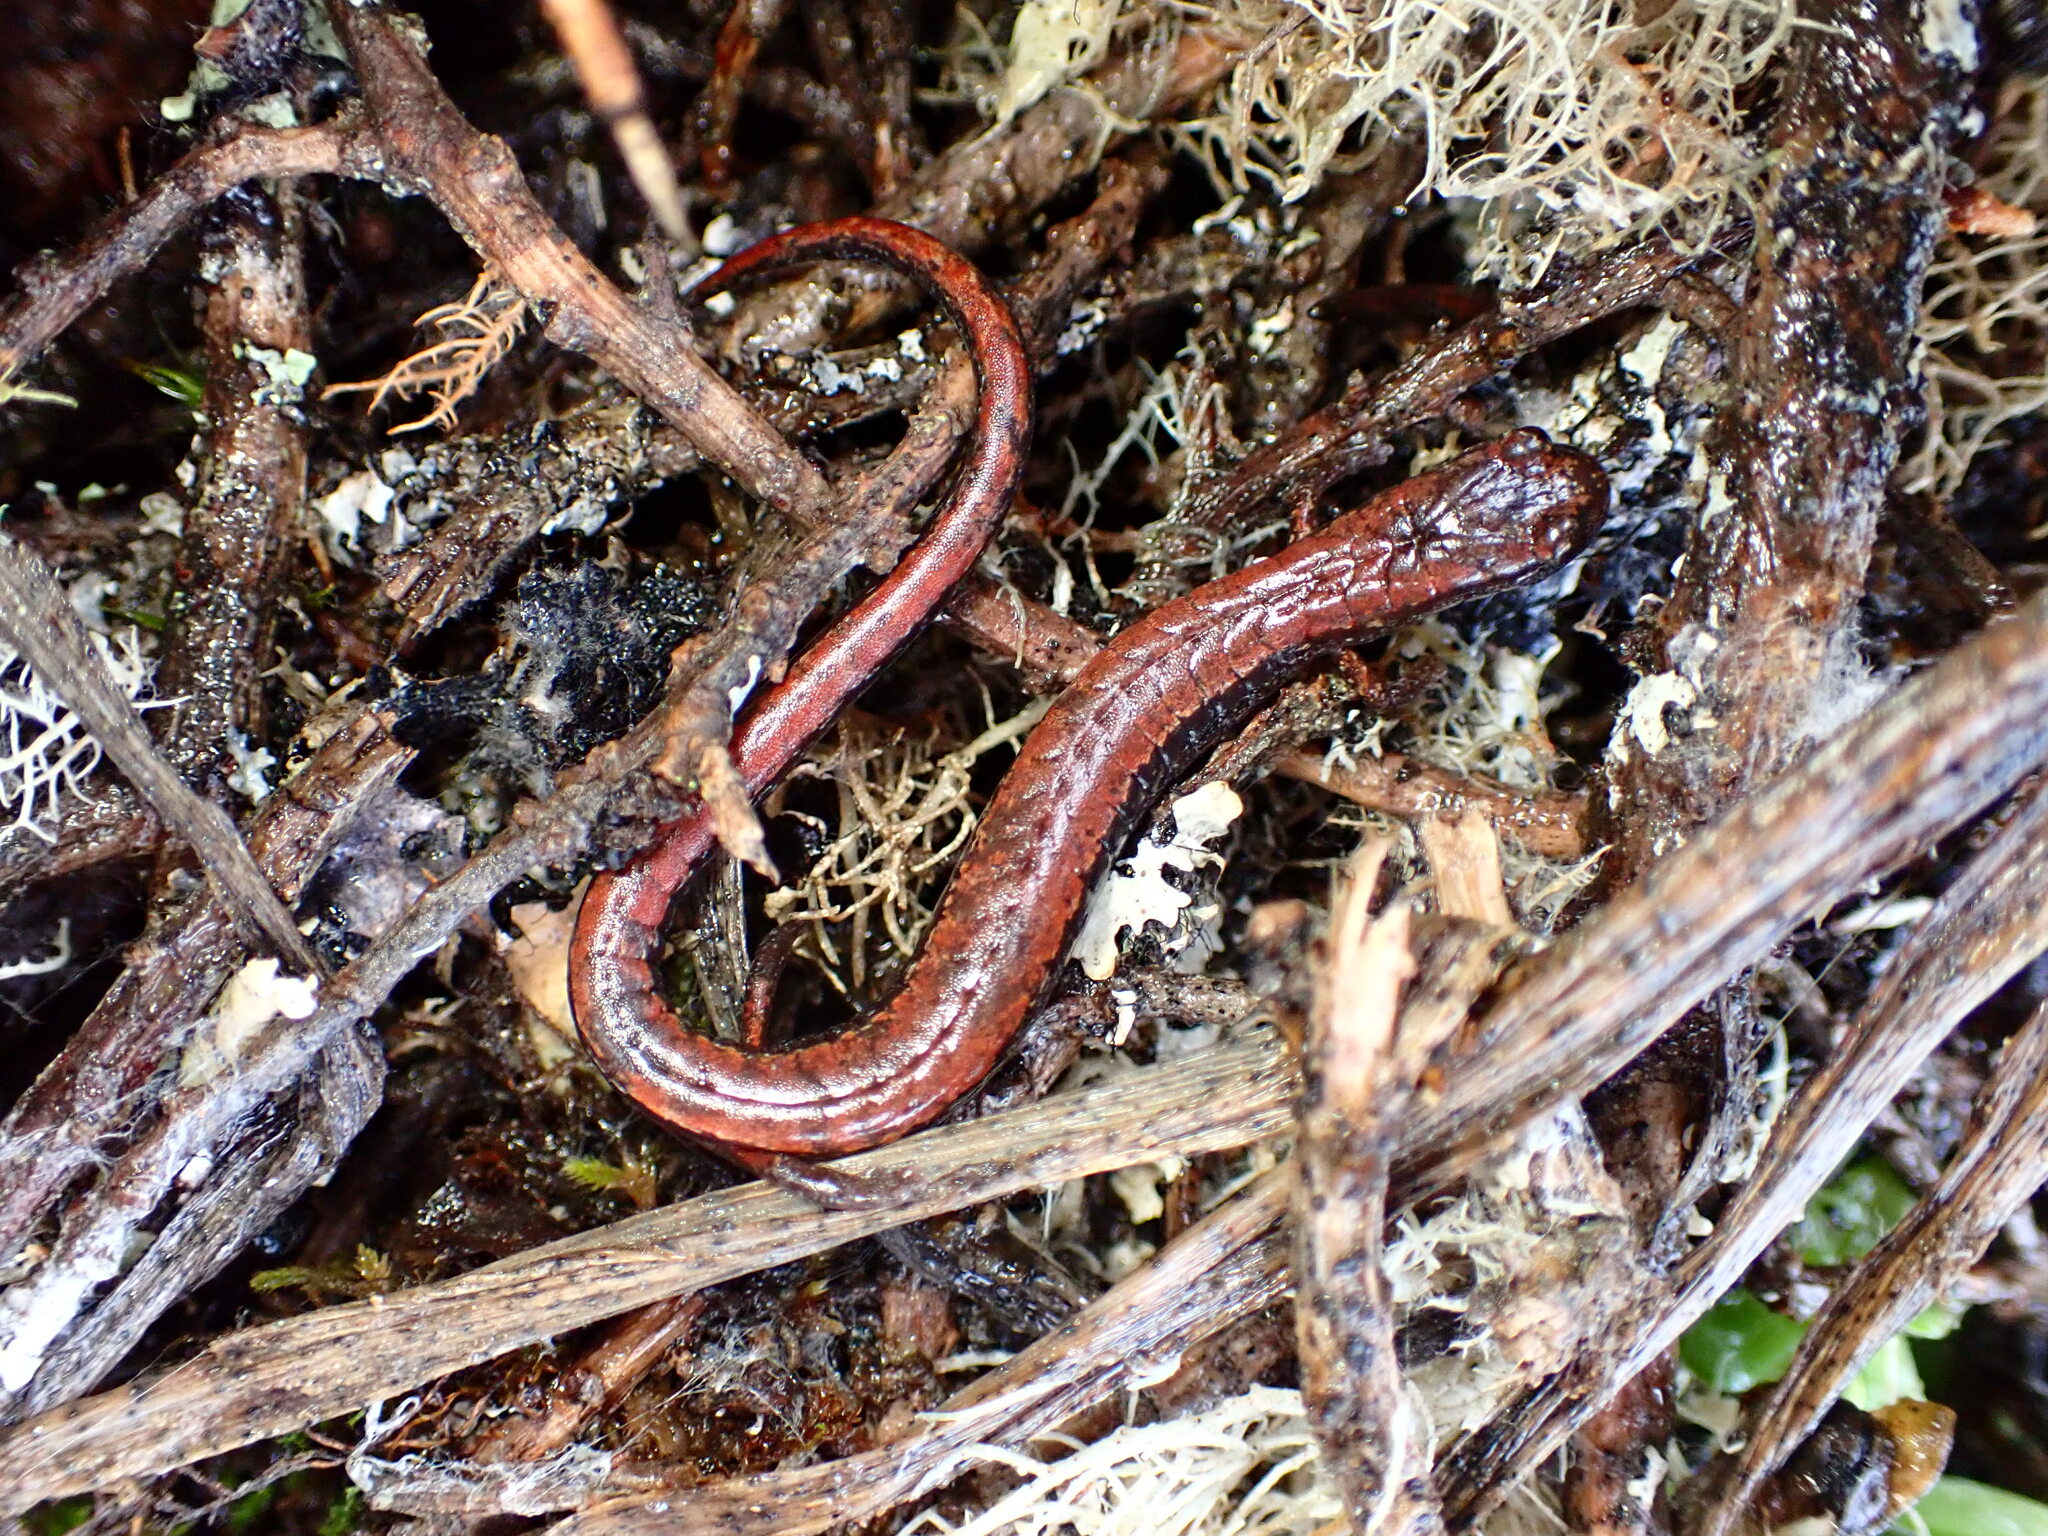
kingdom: Animalia
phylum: Chordata
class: Amphibia
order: Caudata
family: Plethodontidae
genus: Batrachoseps
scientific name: Batrachoseps attenuatus
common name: California slender salamander
